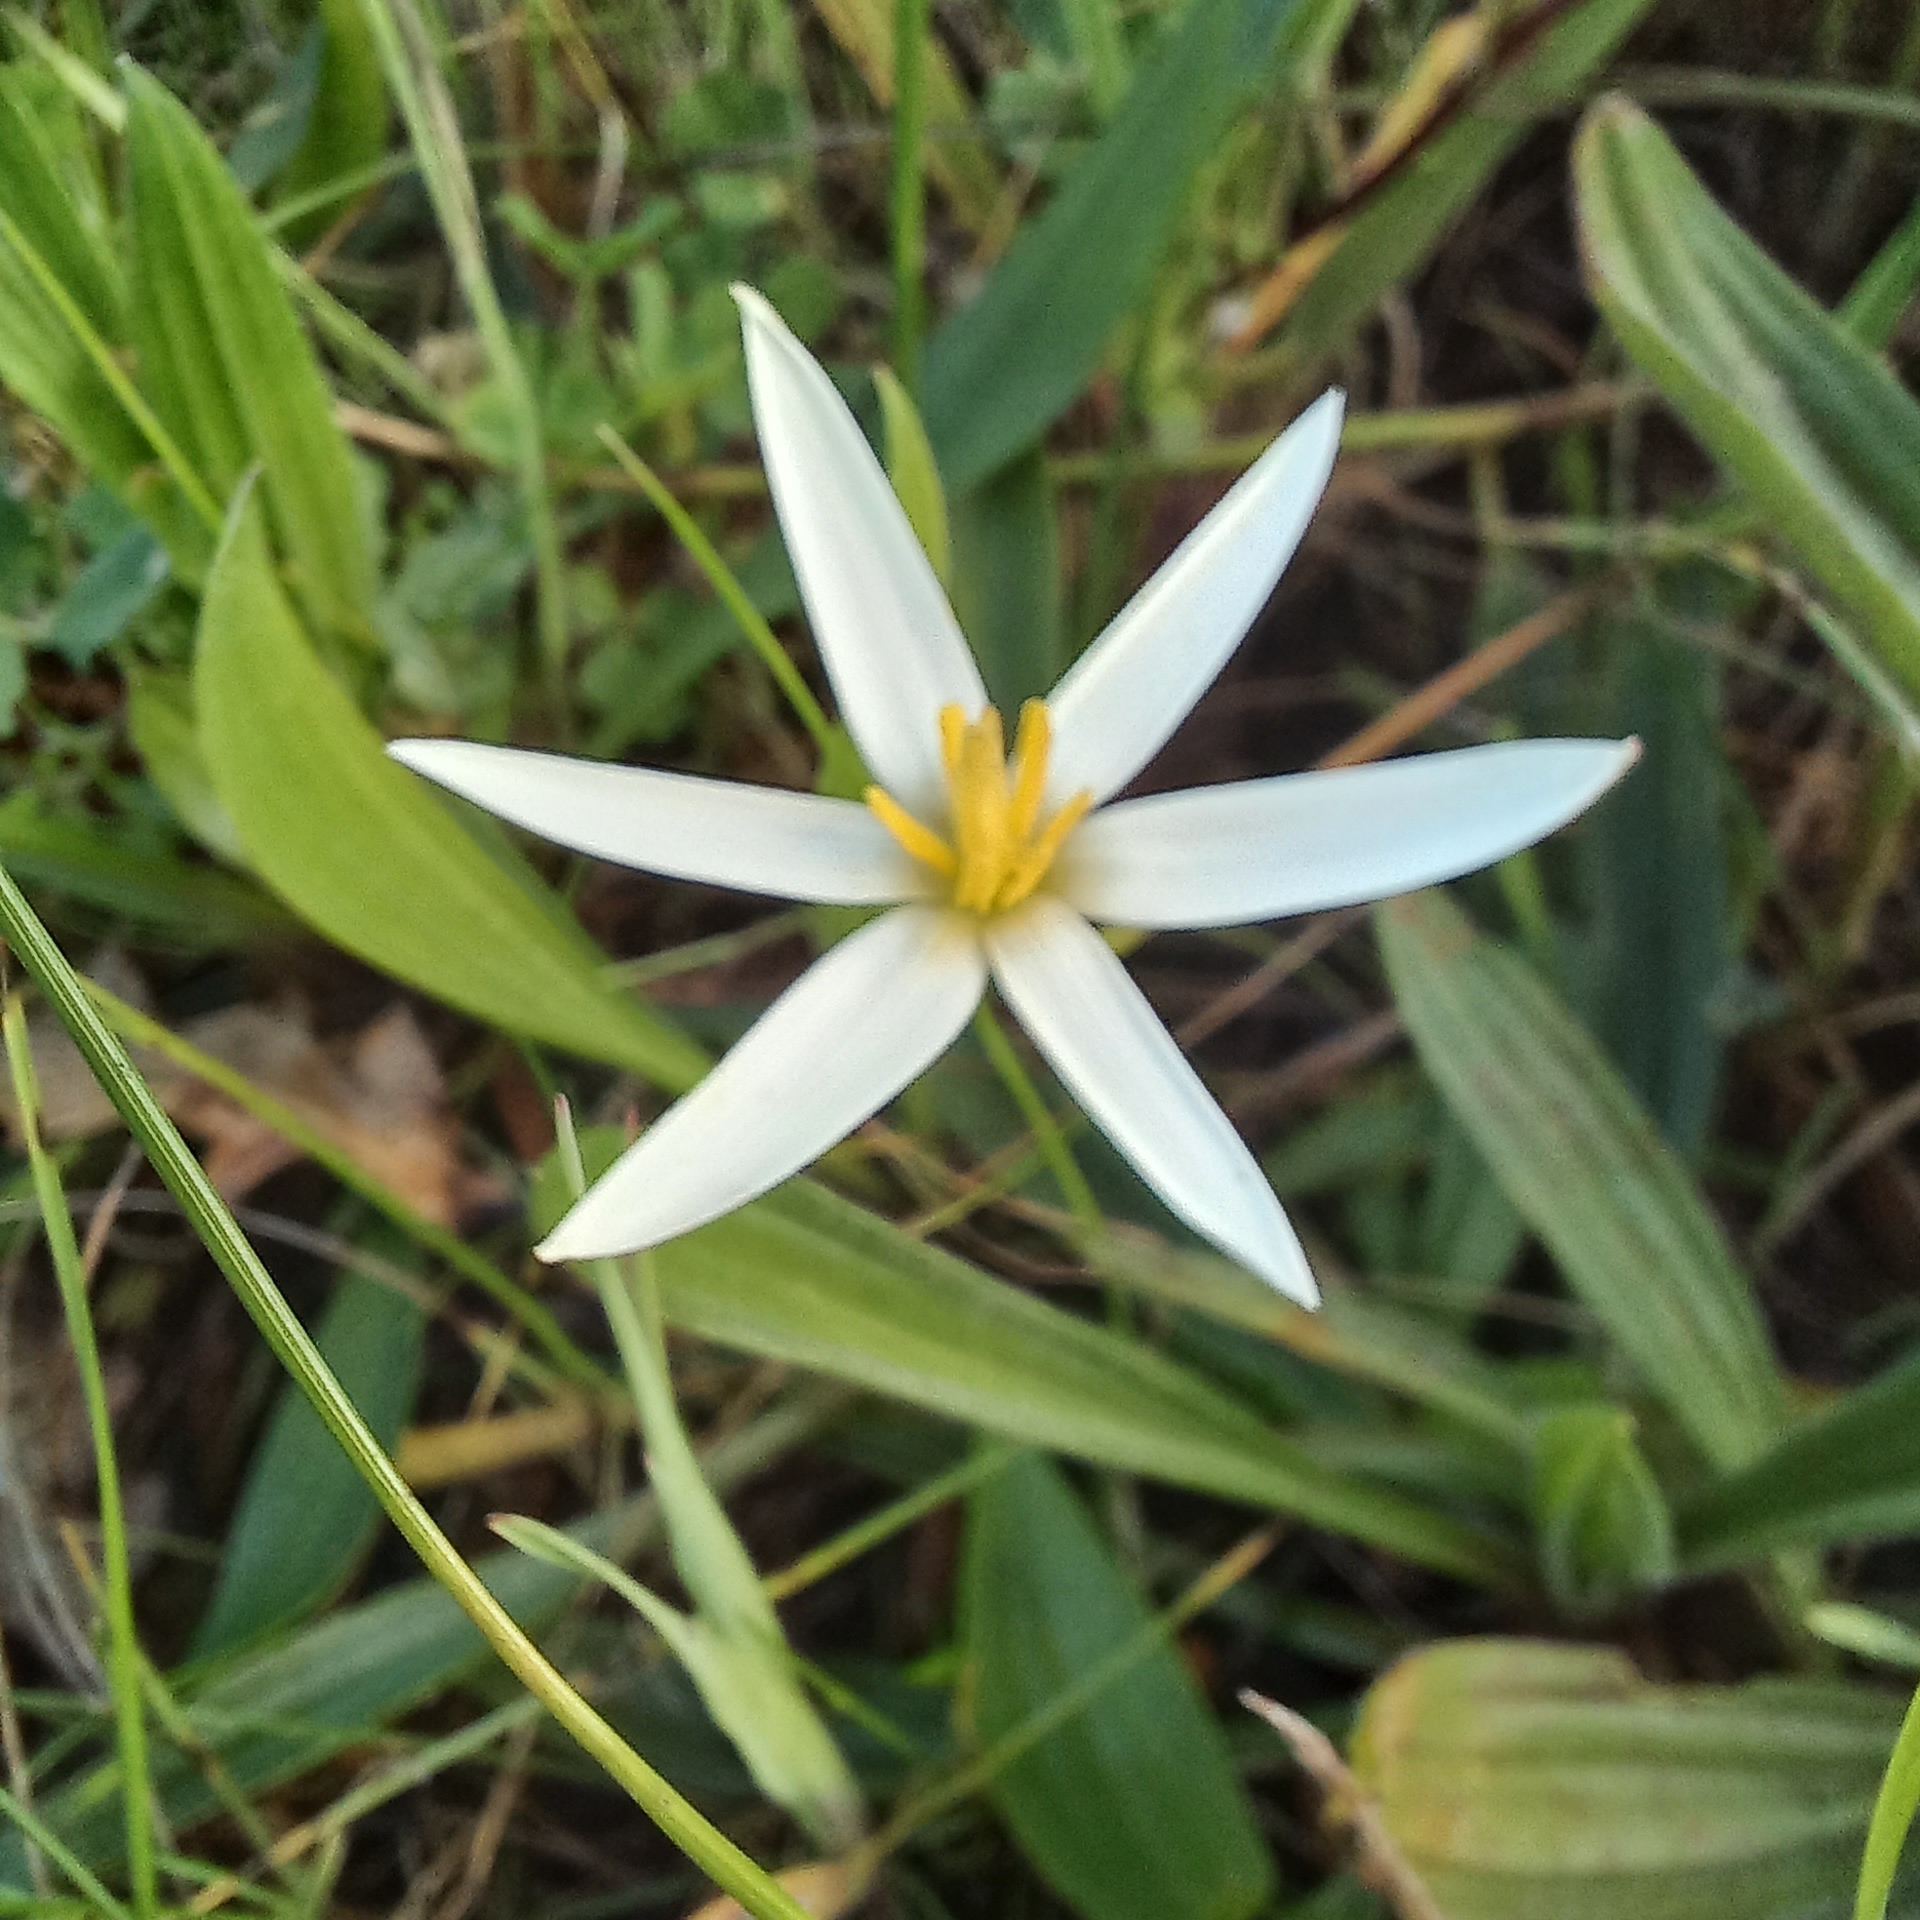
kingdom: Plantae
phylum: Tracheophyta
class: Liliopsida
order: Asparagales
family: Hypoxidaceae
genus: Pauridia
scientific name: Pauridia aquatica
